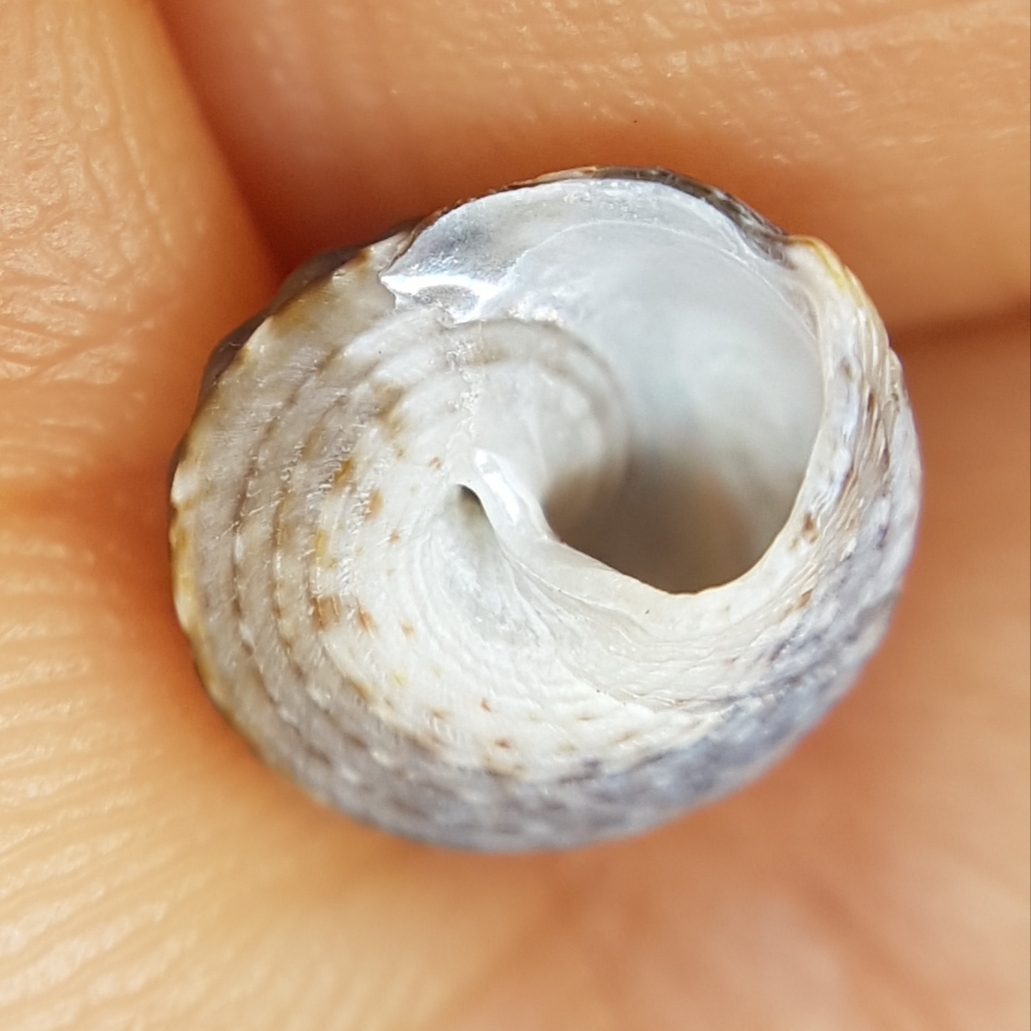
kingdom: Animalia
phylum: Mollusca
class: Gastropoda
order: Trochida
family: Trochidae
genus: Gibbula
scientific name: Gibbula fanulum
